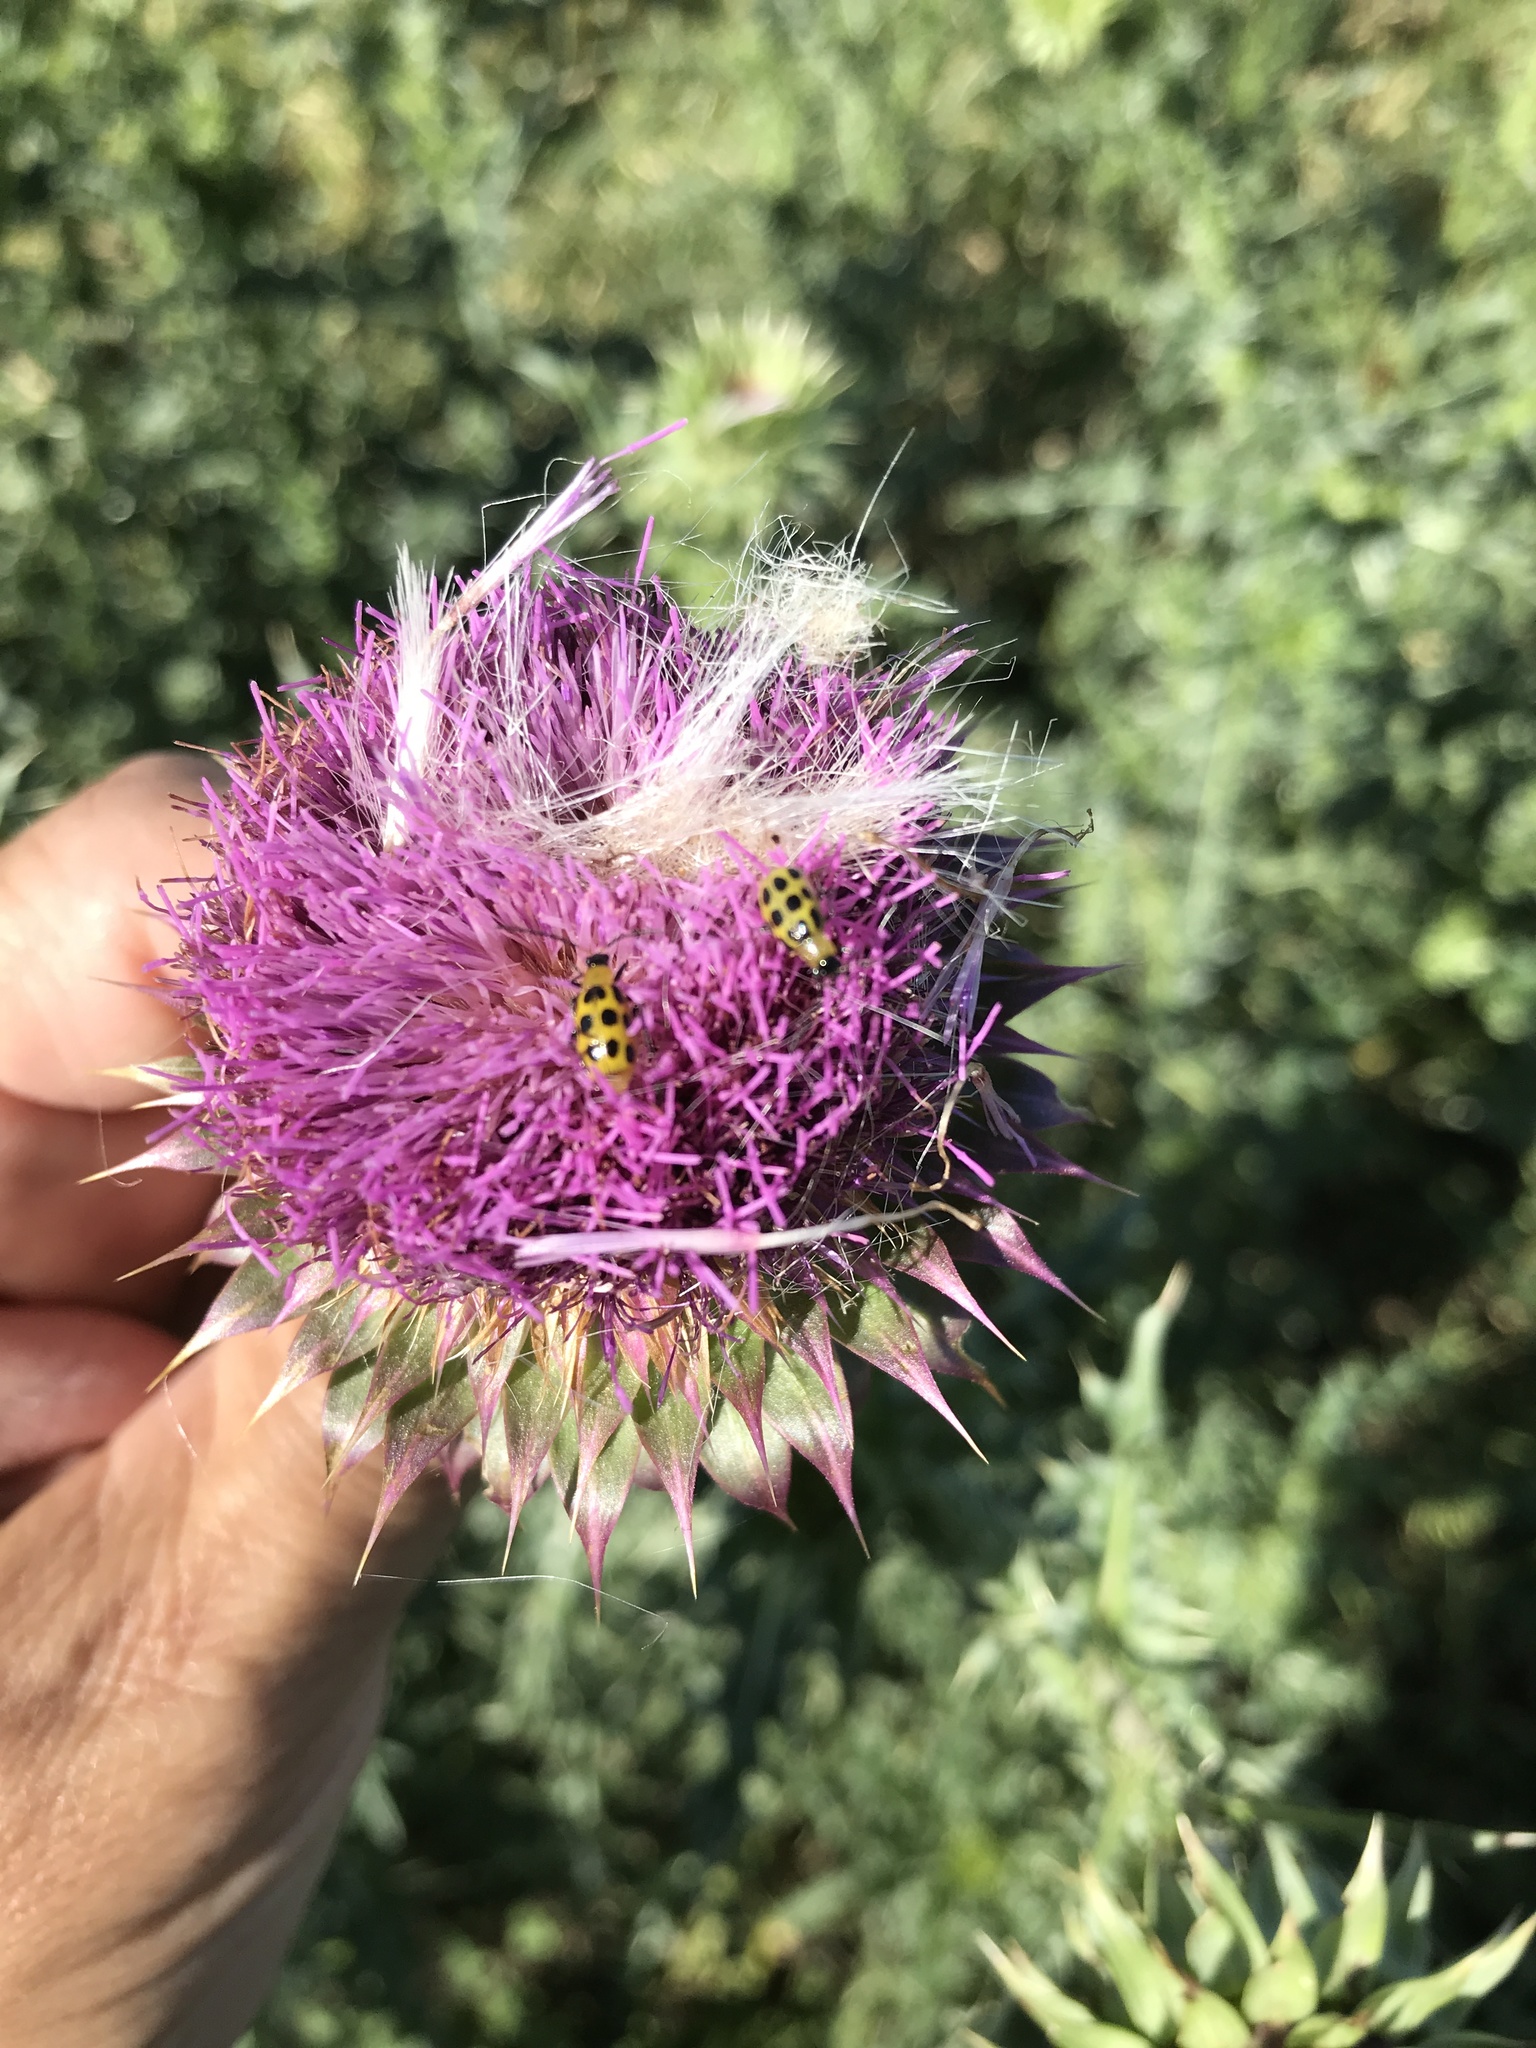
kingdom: Animalia
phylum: Arthropoda
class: Insecta
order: Coleoptera
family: Chrysomelidae
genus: Diabrotica
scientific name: Diabrotica undecimpunctata
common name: Spotted cucumber beetle
